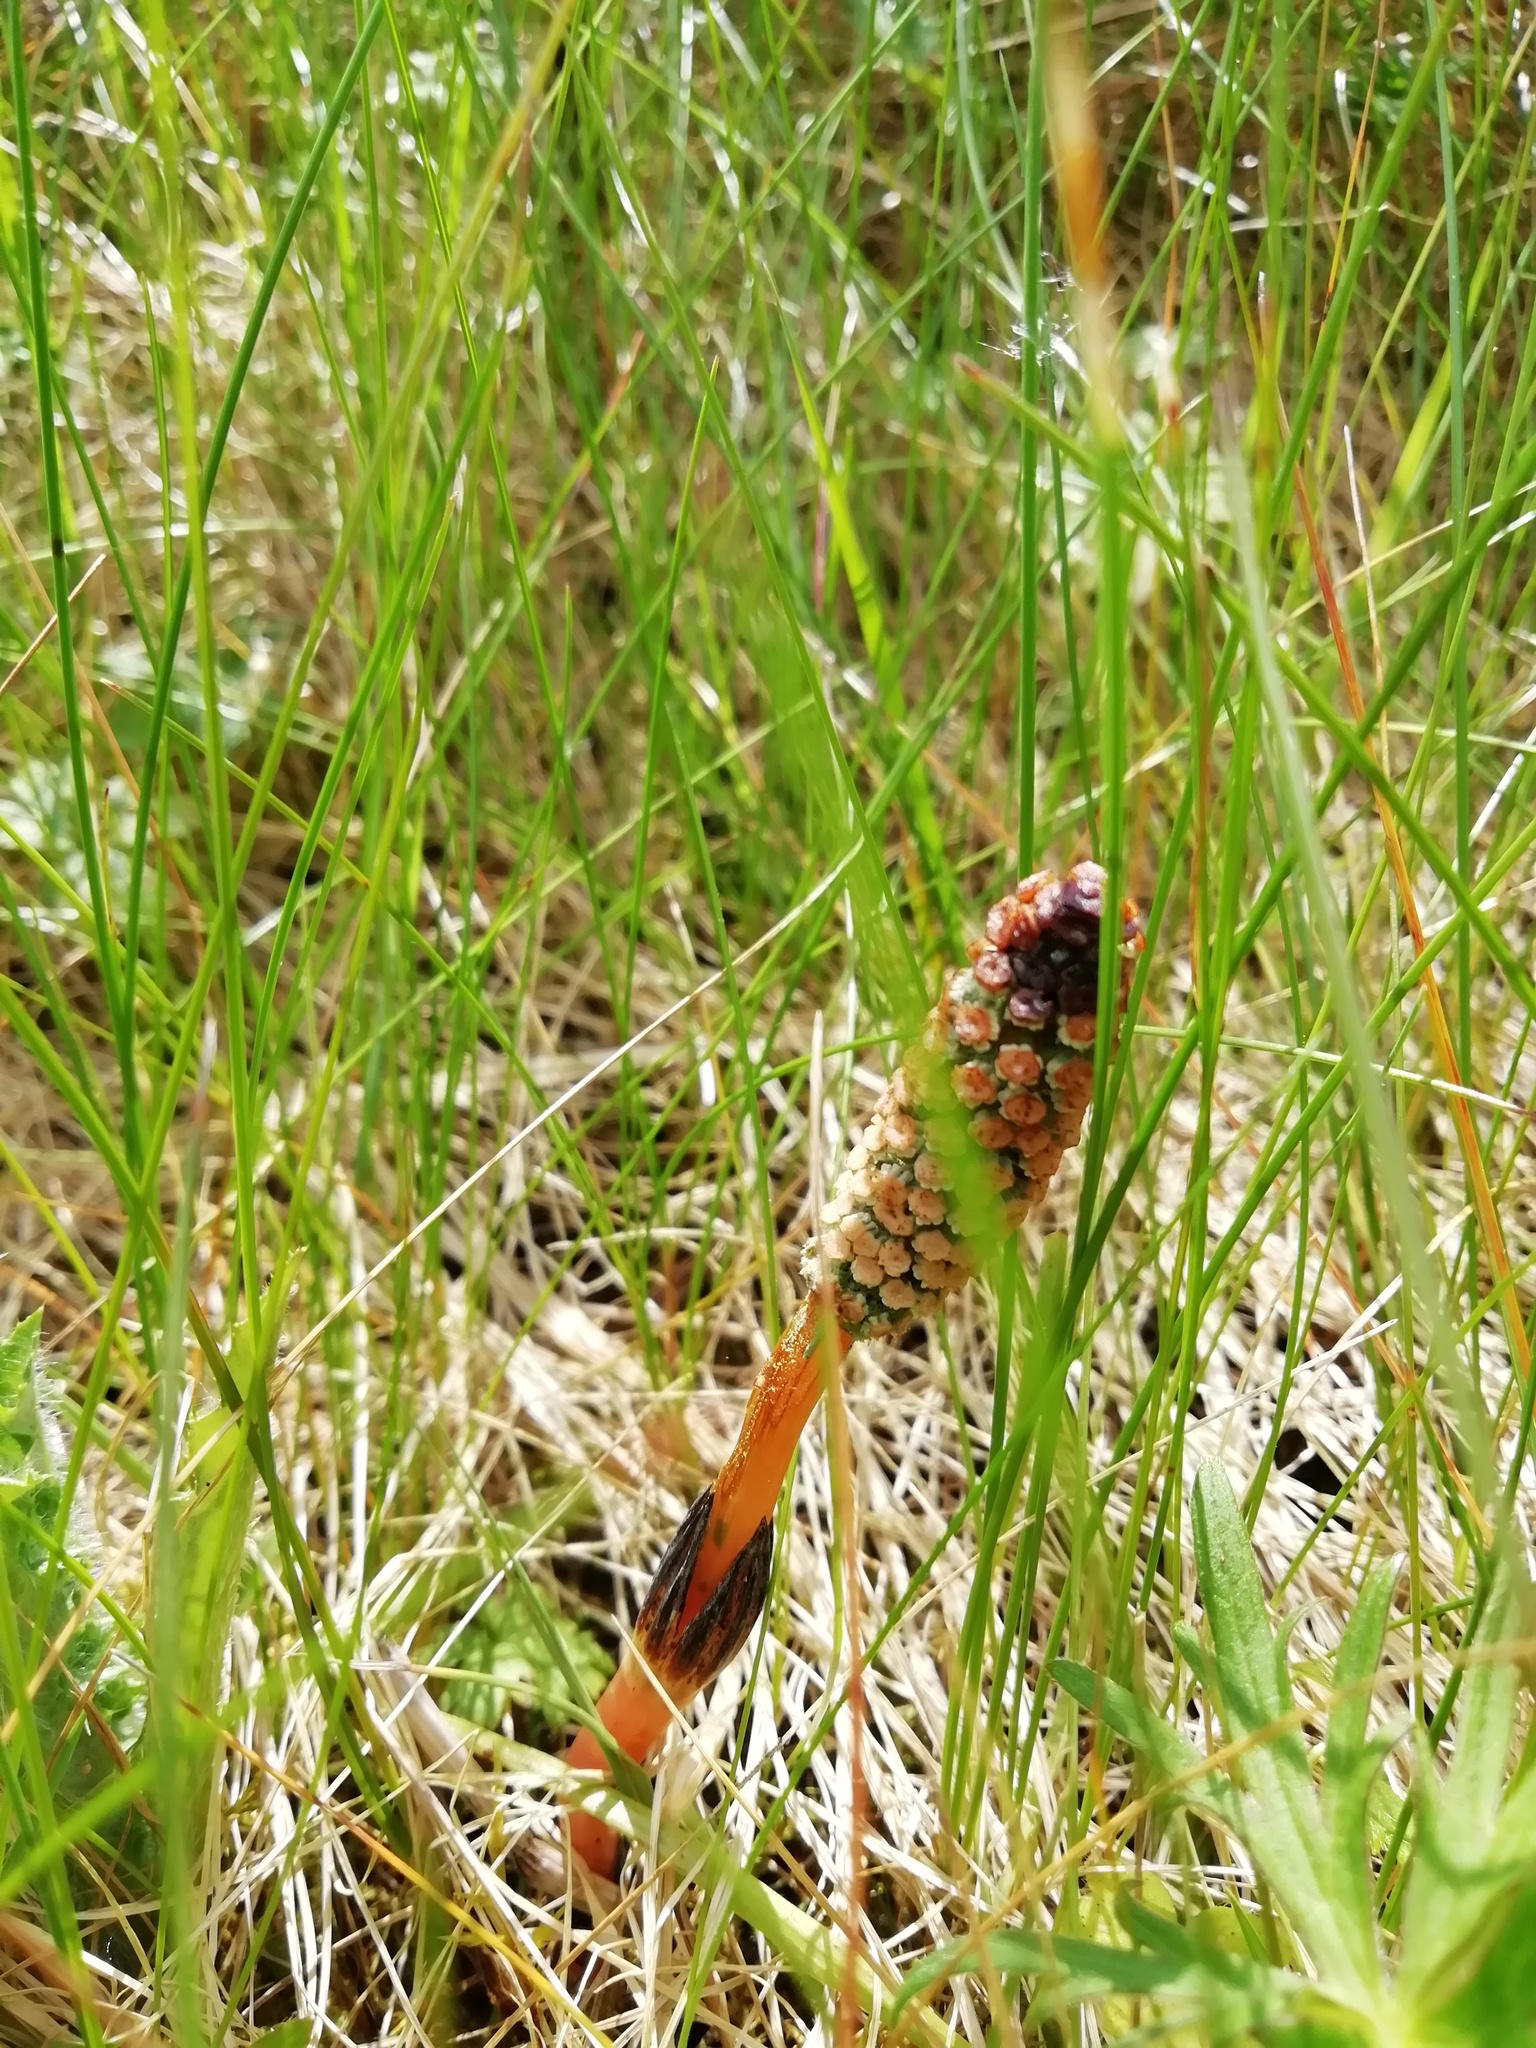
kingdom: Plantae
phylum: Tracheophyta
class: Polypodiopsida
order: Equisetales
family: Equisetaceae
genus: Equisetum
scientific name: Equisetum arvense
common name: Field horsetail
